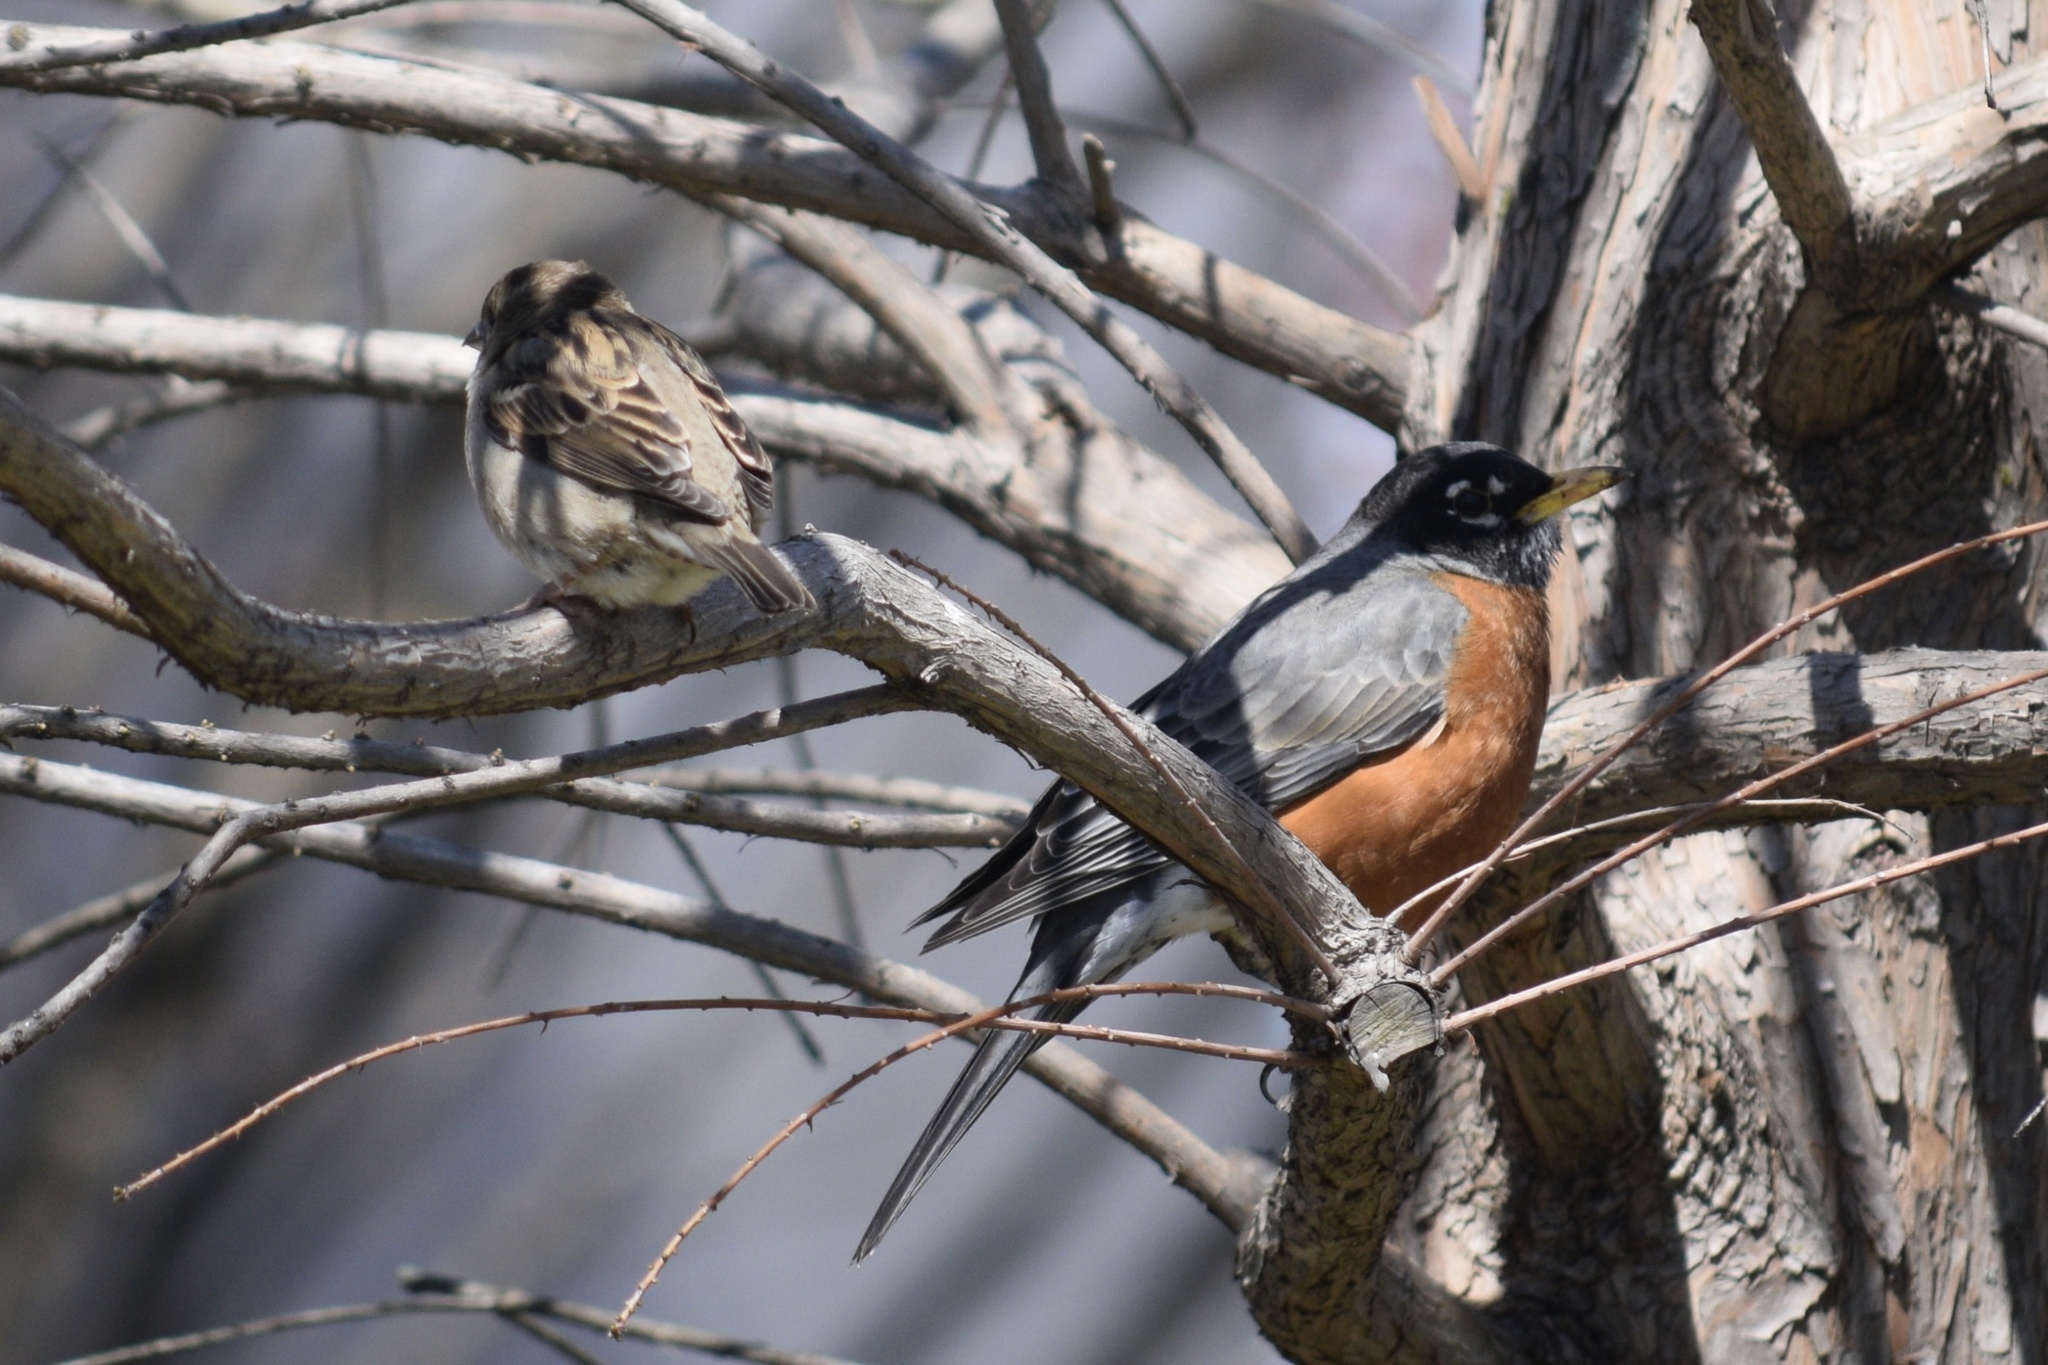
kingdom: Animalia
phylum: Chordata
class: Aves
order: Passeriformes
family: Passeridae
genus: Passer
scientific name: Passer domesticus
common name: House sparrow
